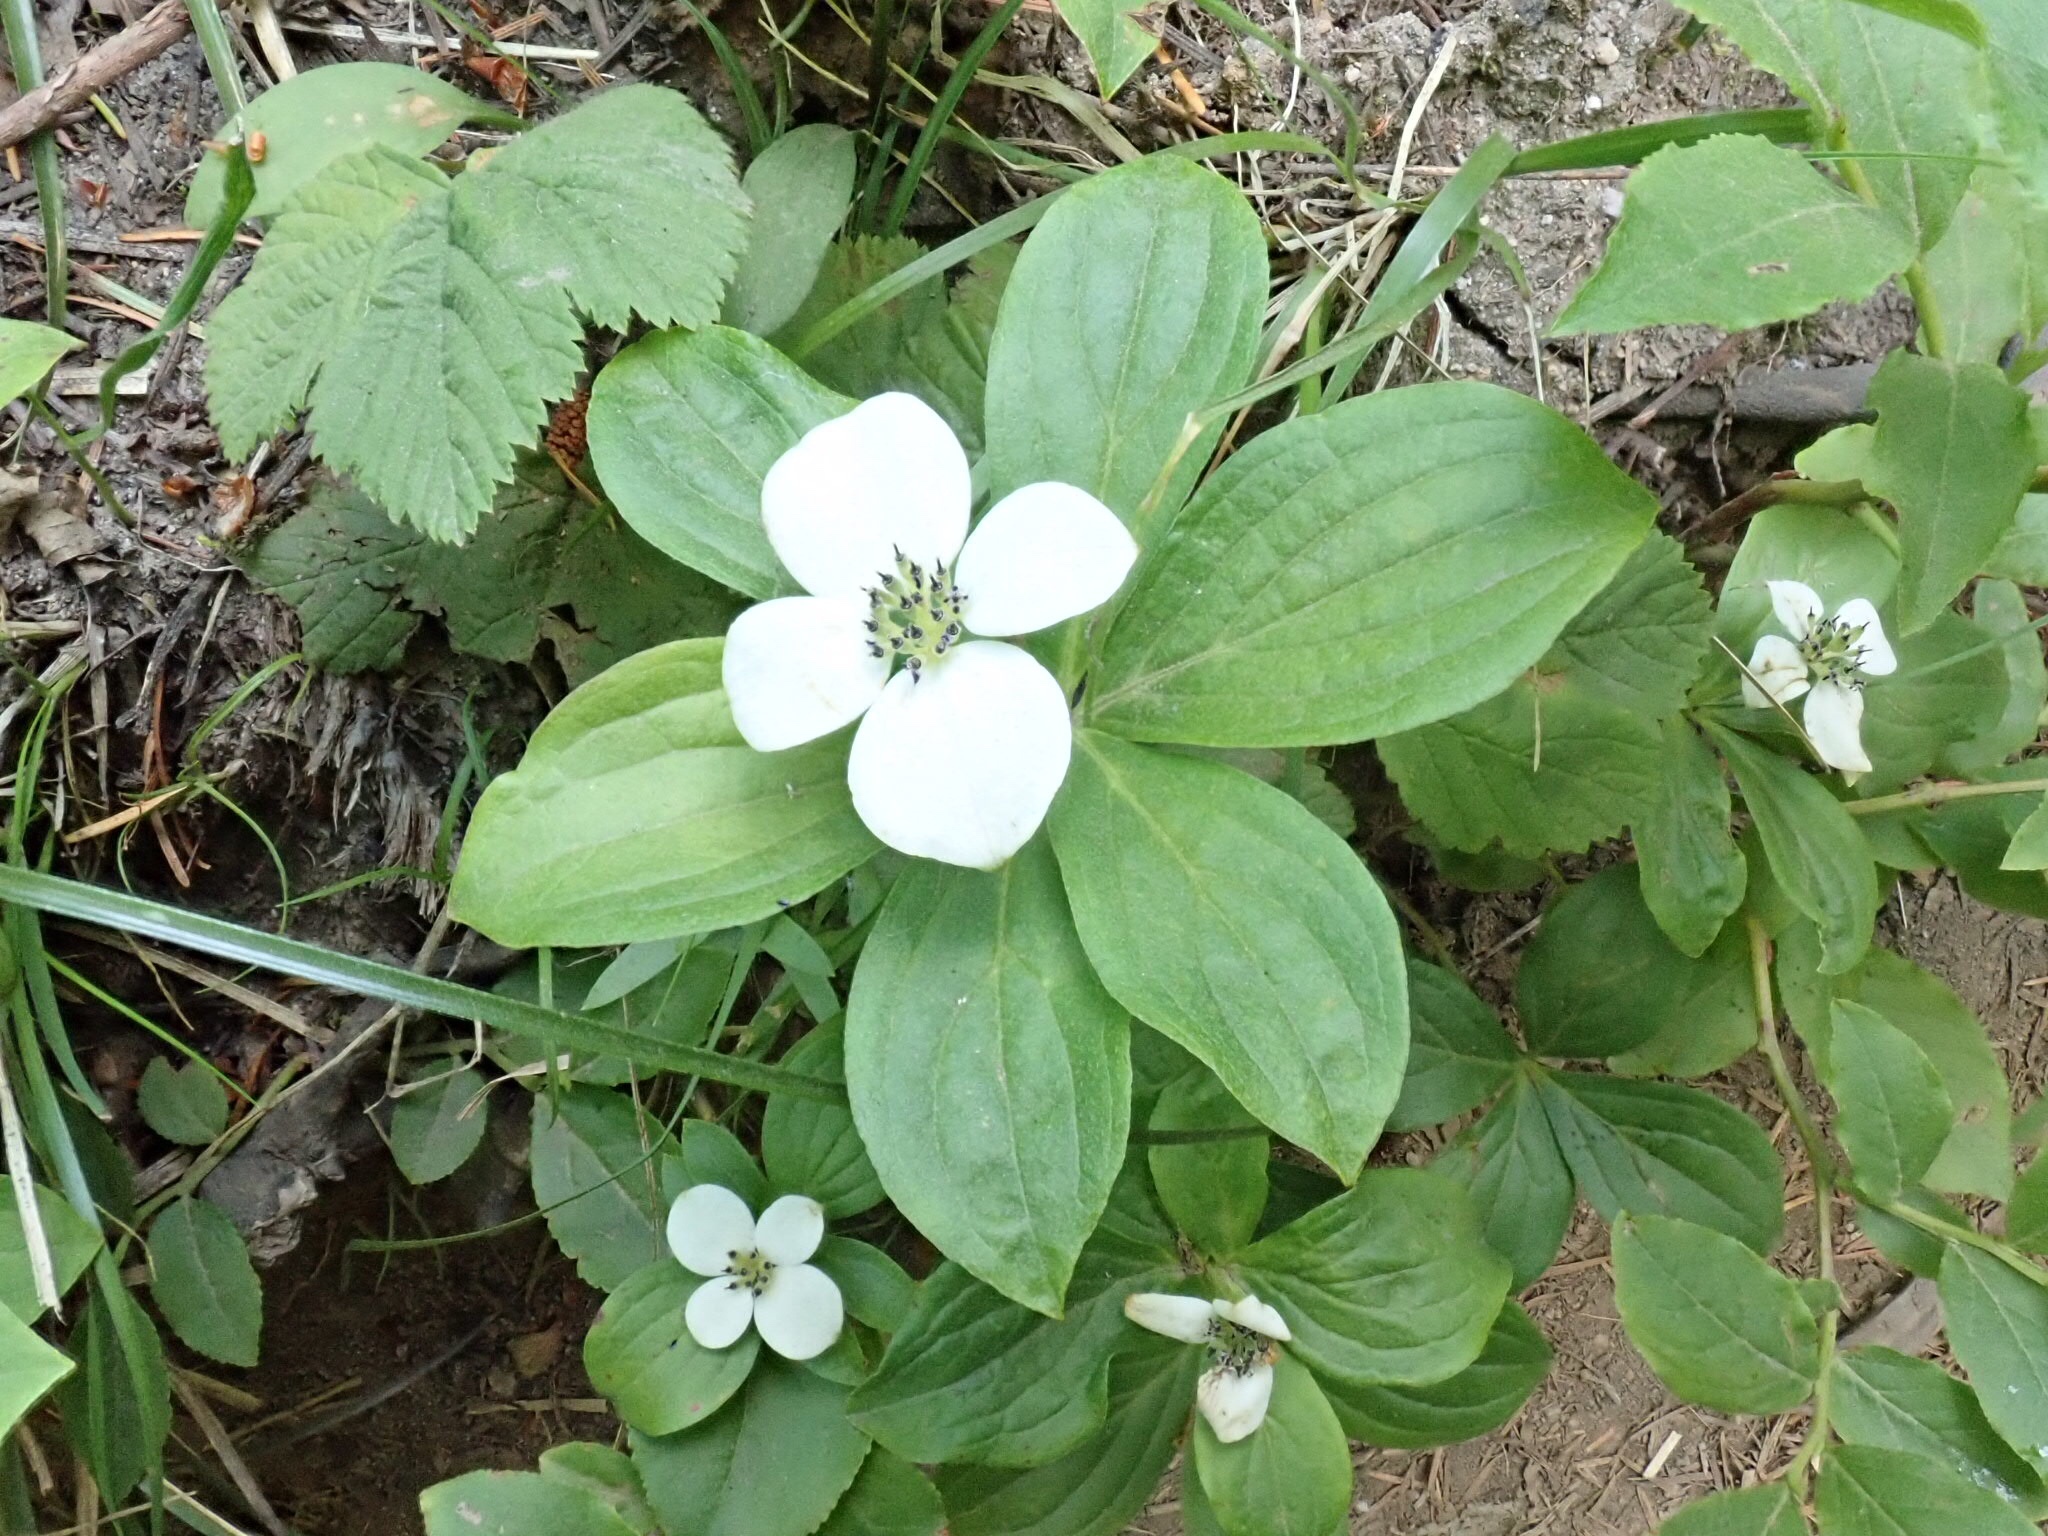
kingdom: Plantae
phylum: Tracheophyta
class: Magnoliopsida
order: Cornales
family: Cornaceae
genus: Cornus
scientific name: Cornus unalaschkensis
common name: Alaska bunchberry
